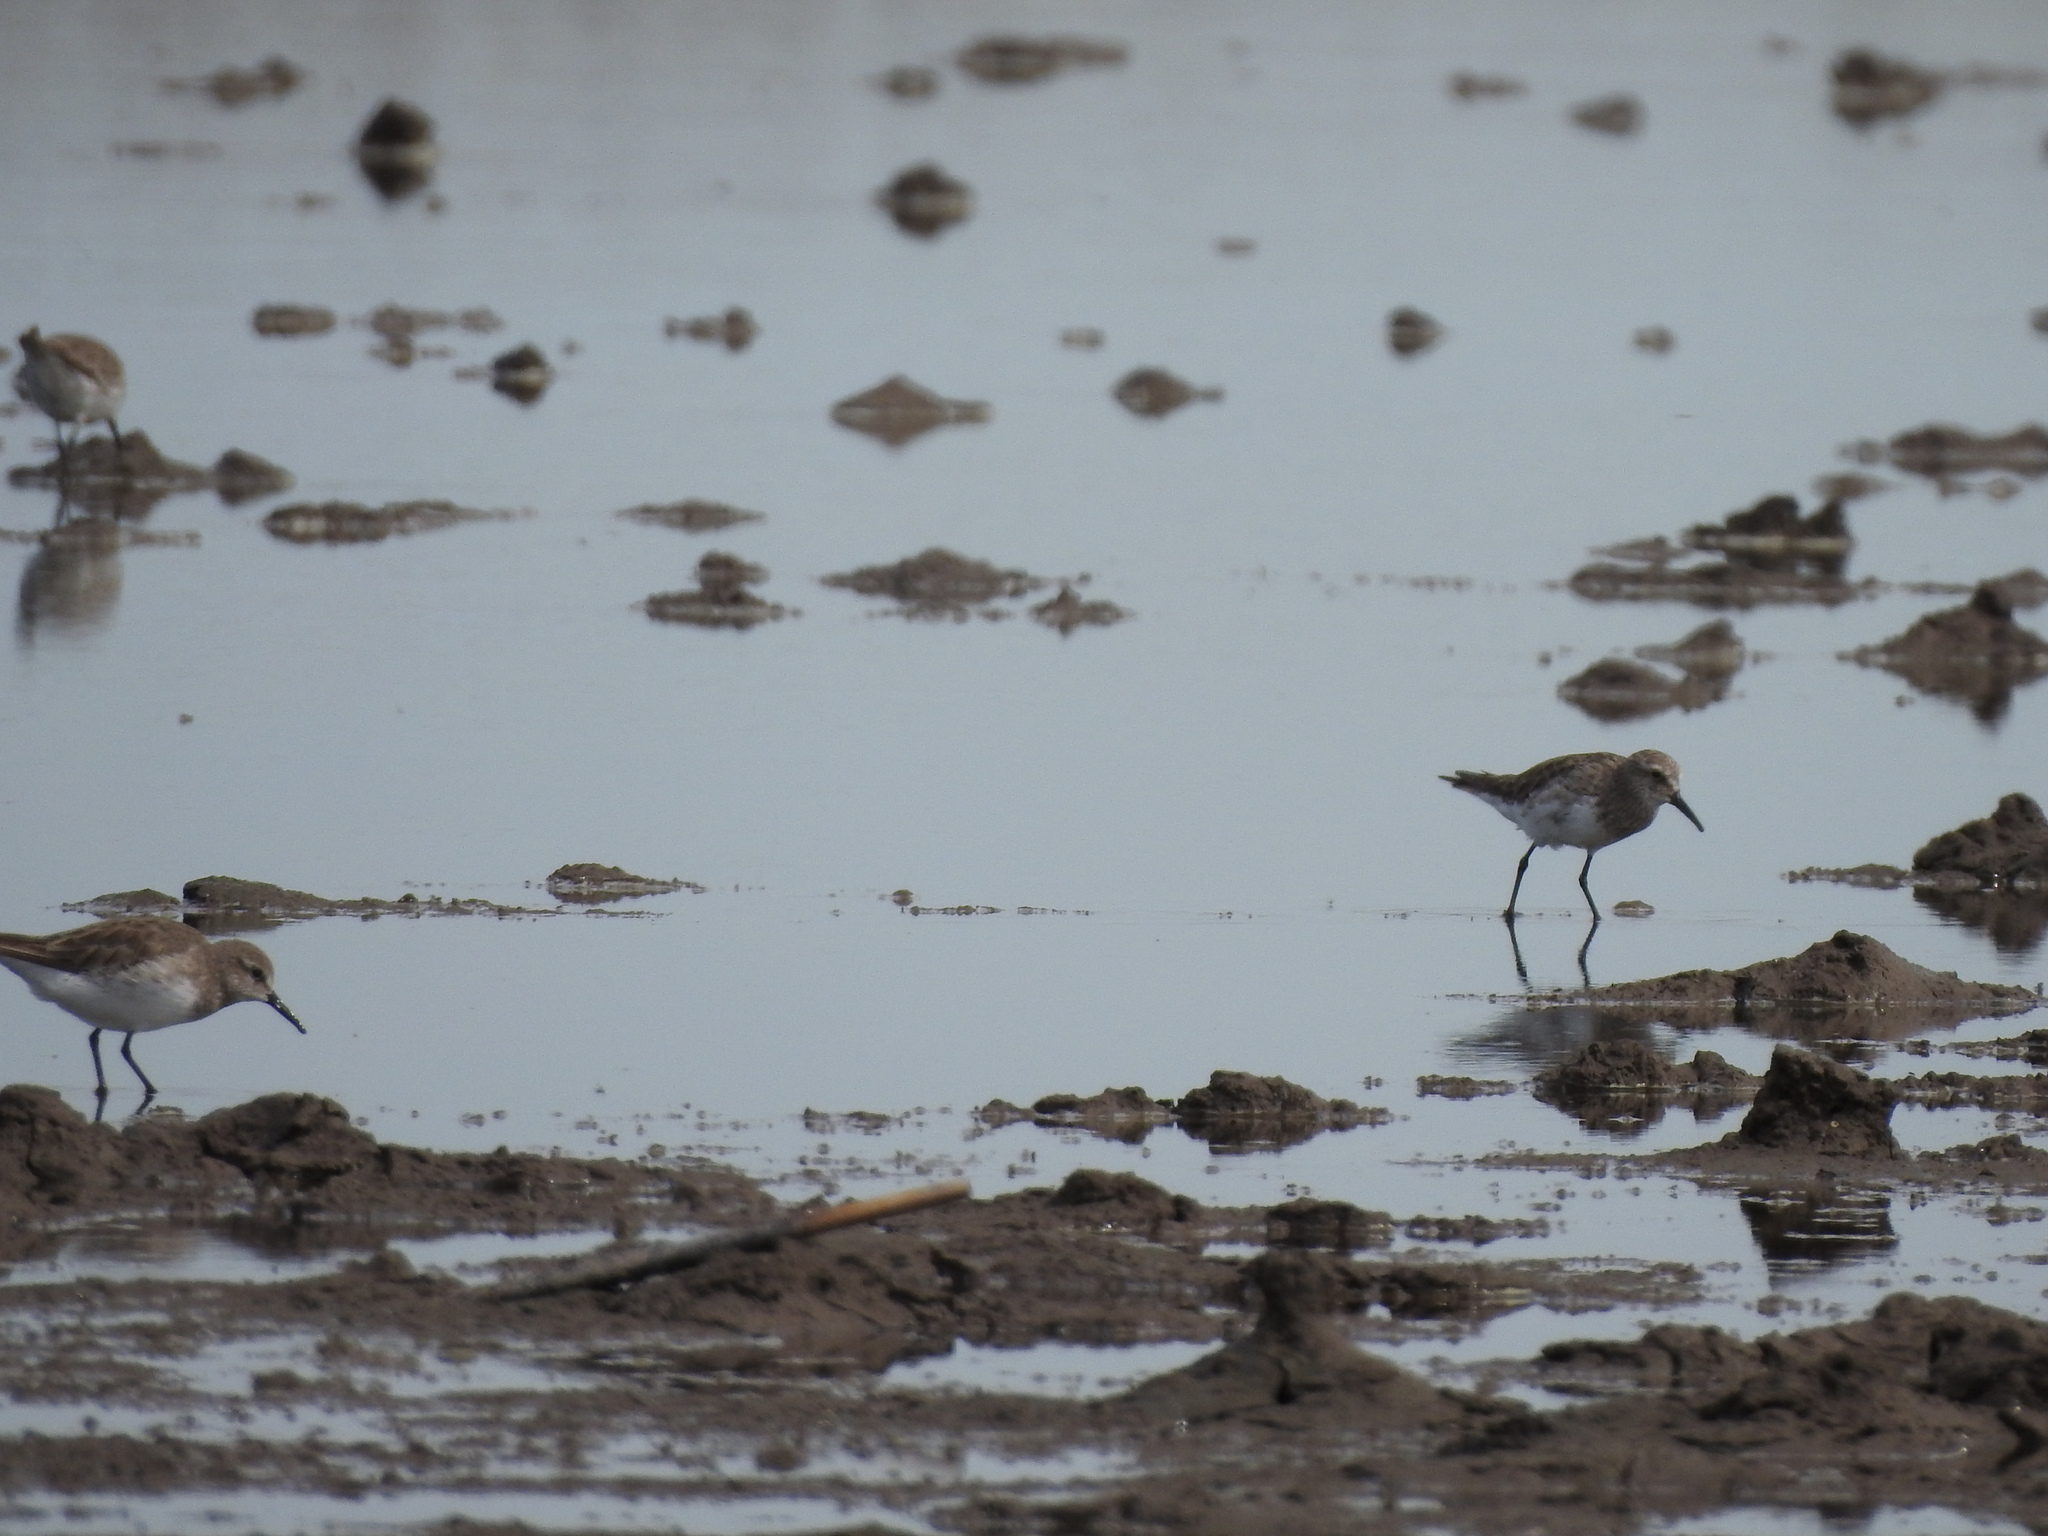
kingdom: Animalia
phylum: Chordata
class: Aves
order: Charadriiformes
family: Scolopacidae
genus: Calidris
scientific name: Calidris fuscicollis
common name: White-rumped sandpiper
